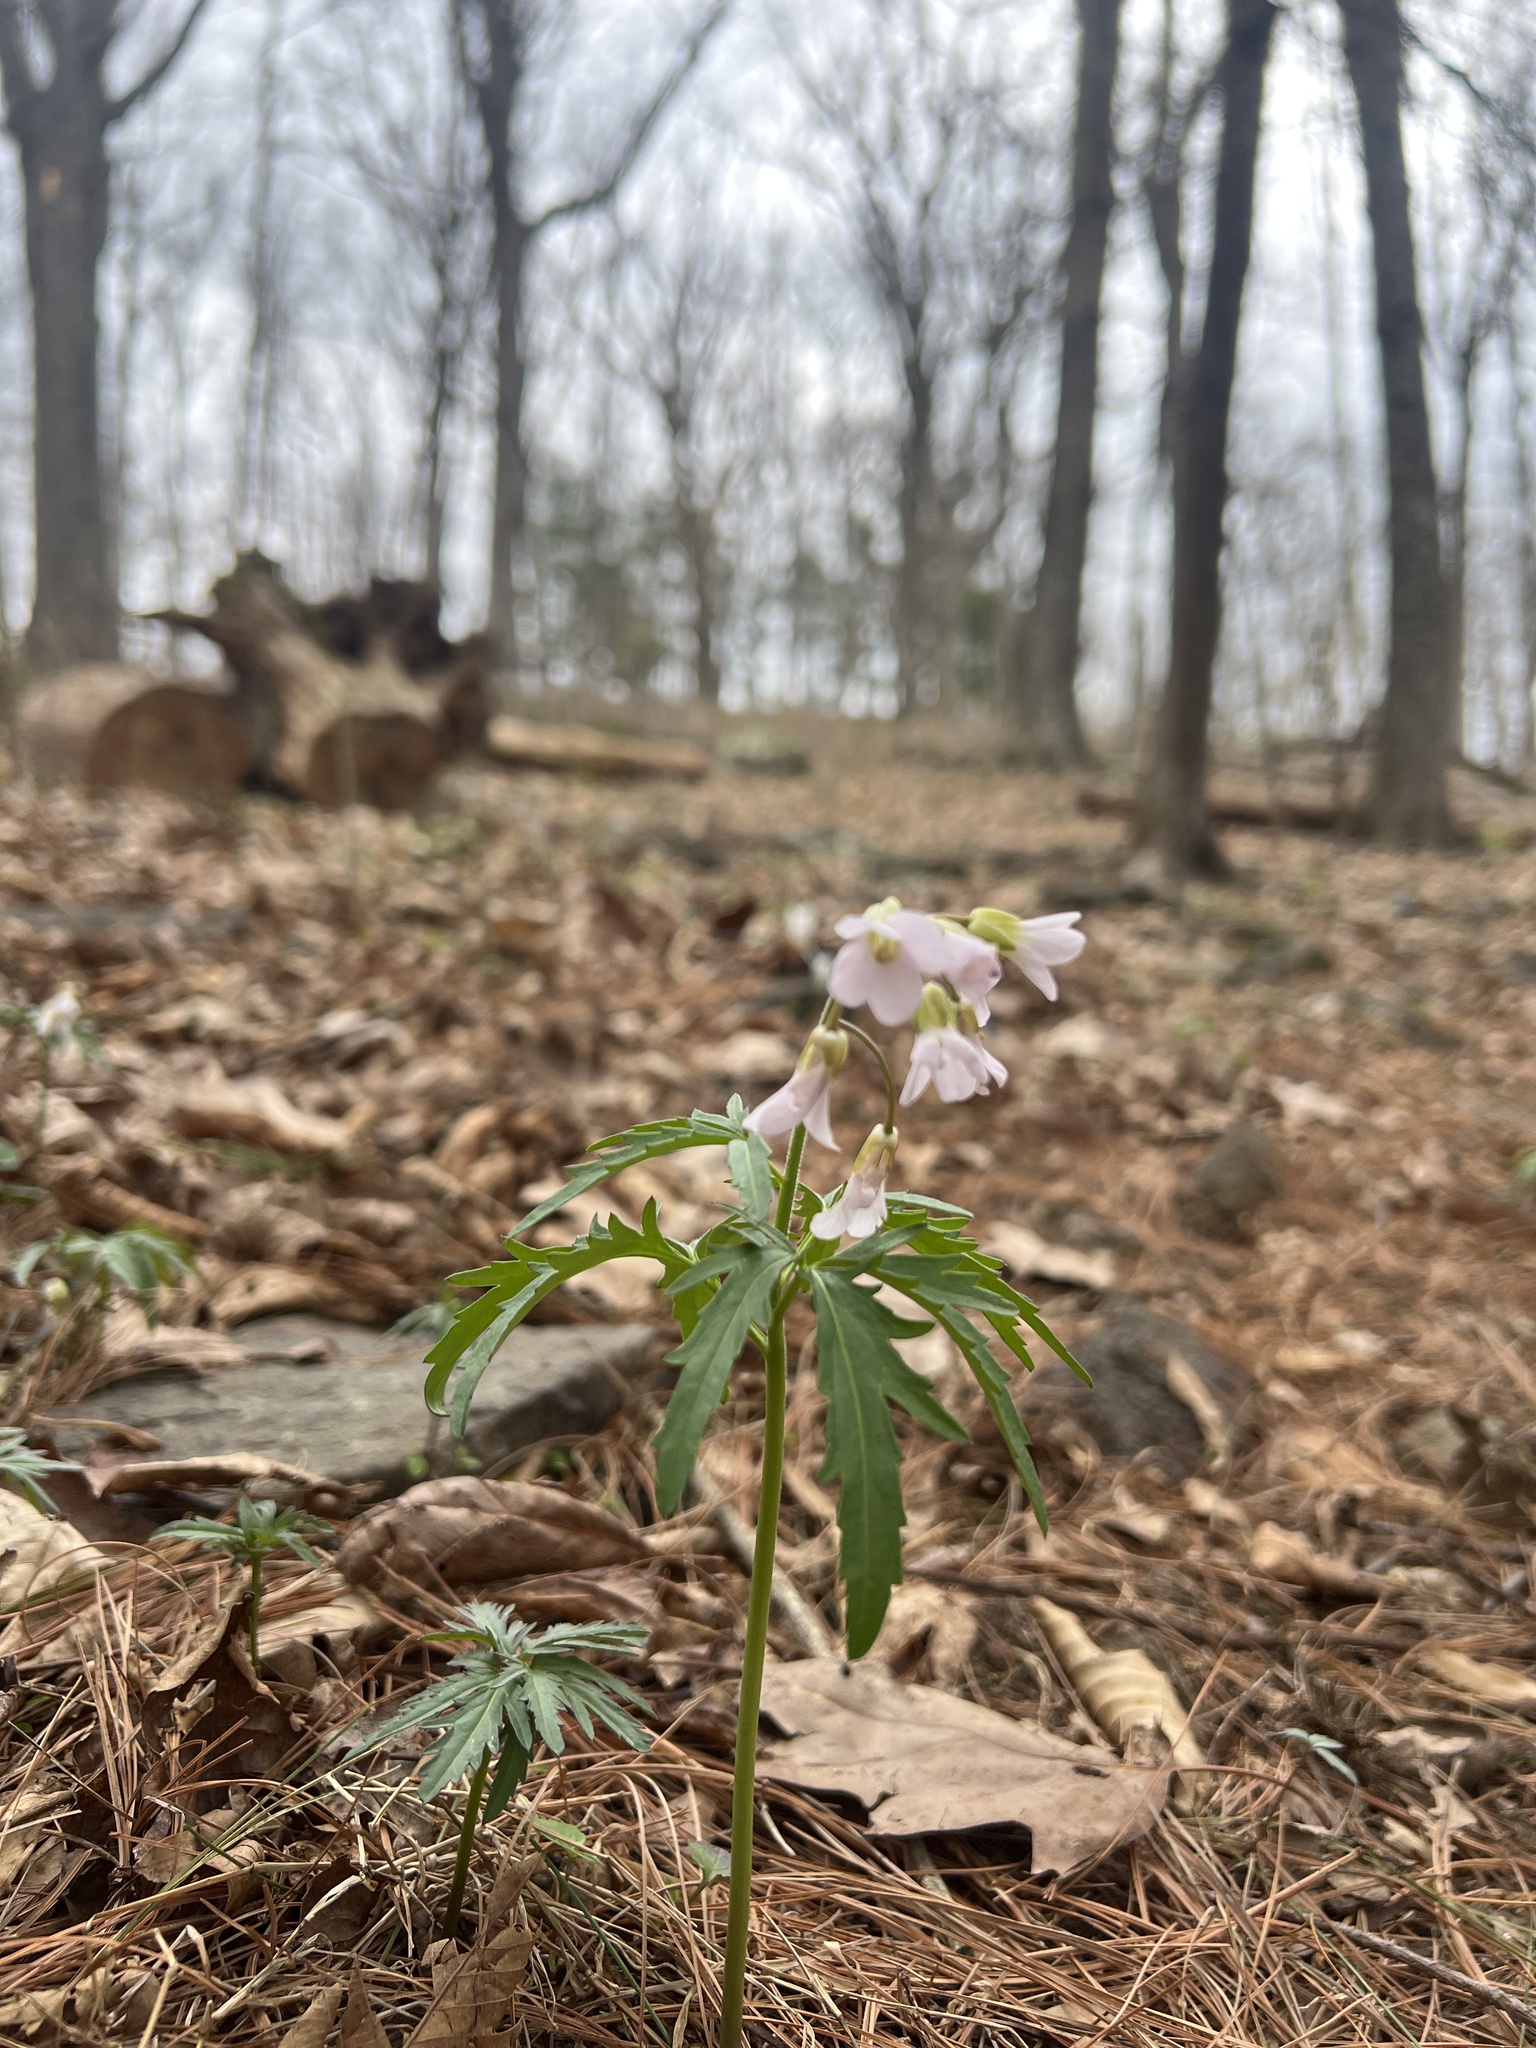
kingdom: Plantae
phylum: Tracheophyta
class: Magnoliopsida
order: Brassicales
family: Brassicaceae
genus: Cardamine
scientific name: Cardamine concatenata
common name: Cut-leaf toothcup
